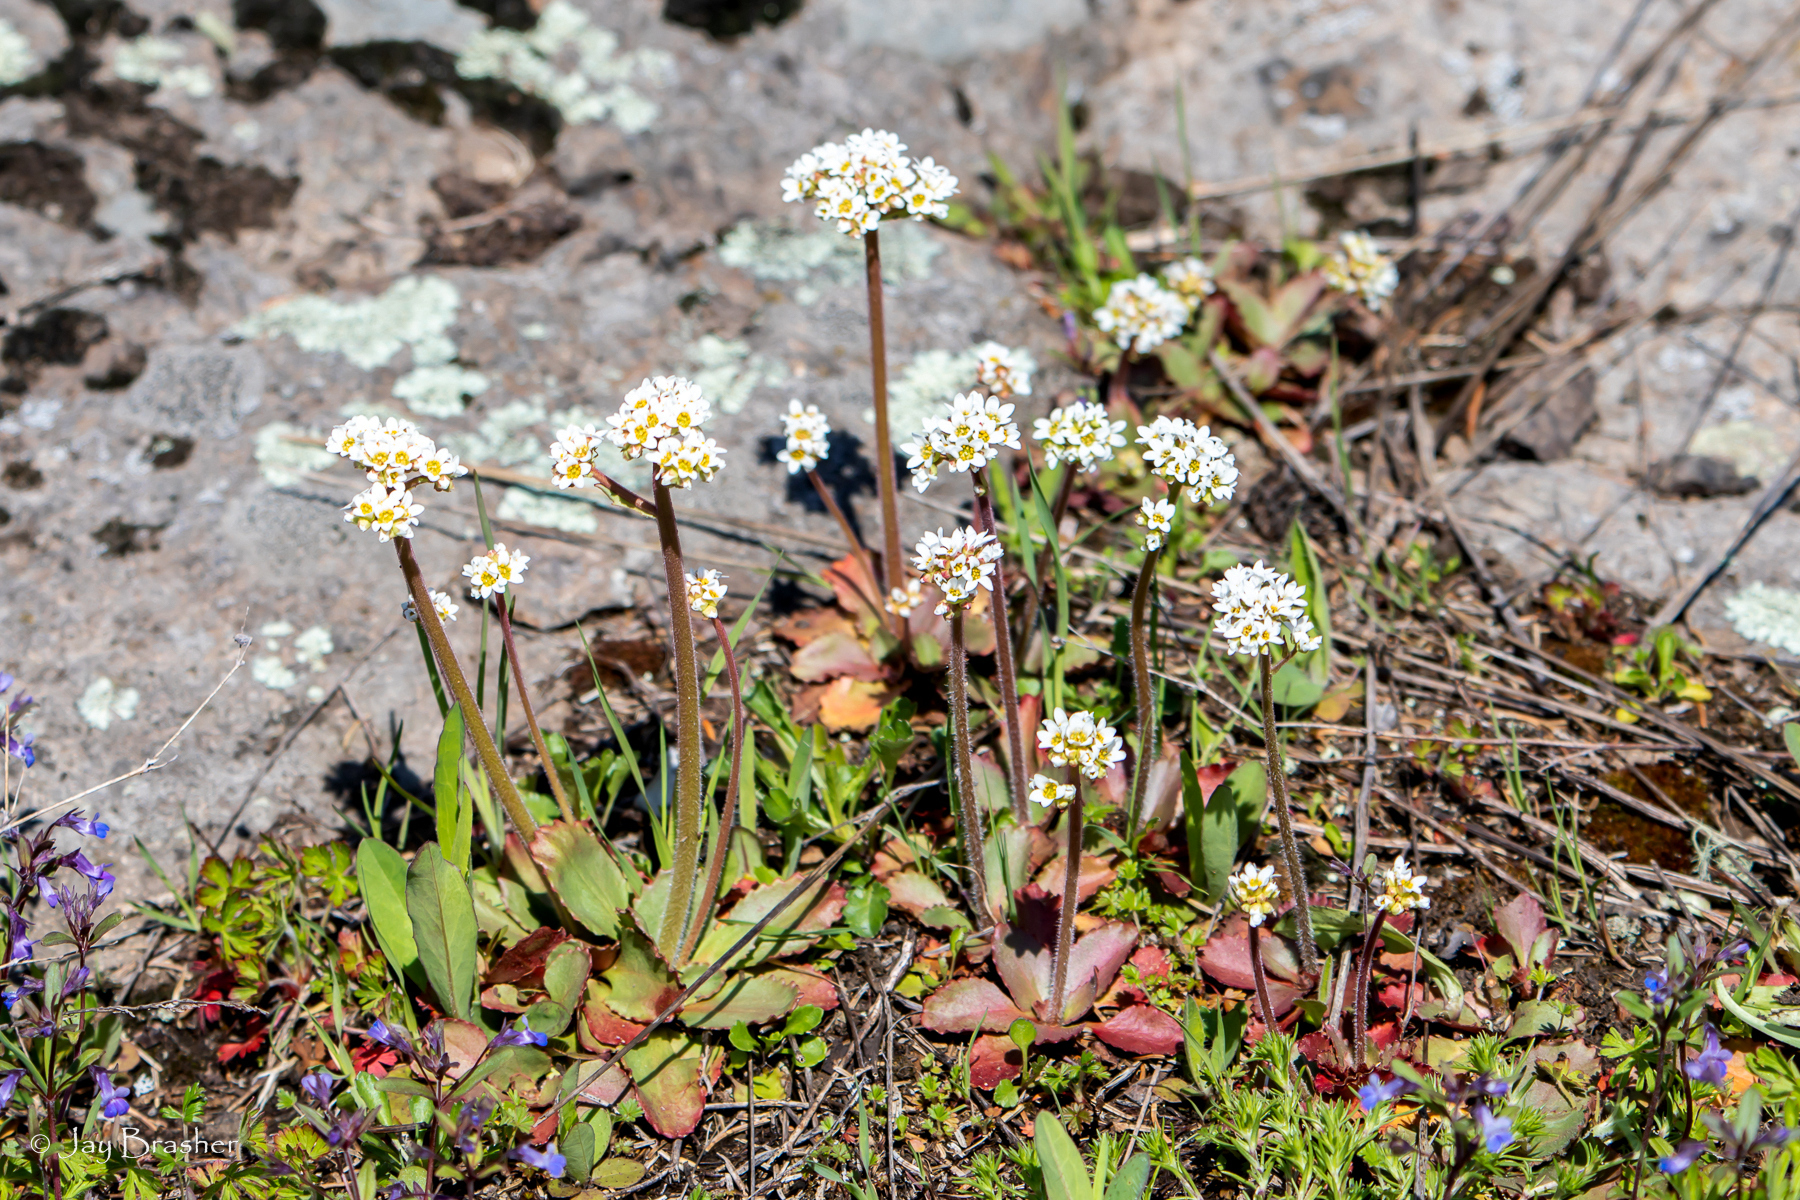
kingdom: Plantae
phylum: Tracheophyta
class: Magnoliopsida
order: Saxifragales
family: Saxifragaceae
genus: Micranthes
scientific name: Micranthes virginiensis
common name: Early saxifrage
